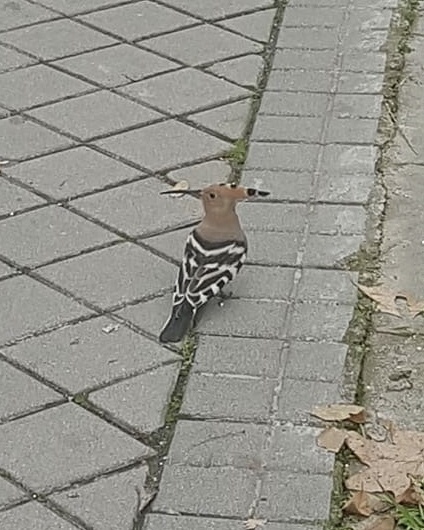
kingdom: Animalia
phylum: Chordata
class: Aves
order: Bucerotiformes
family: Upupidae
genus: Upupa
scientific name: Upupa epops
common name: Eurasian hoopoe
